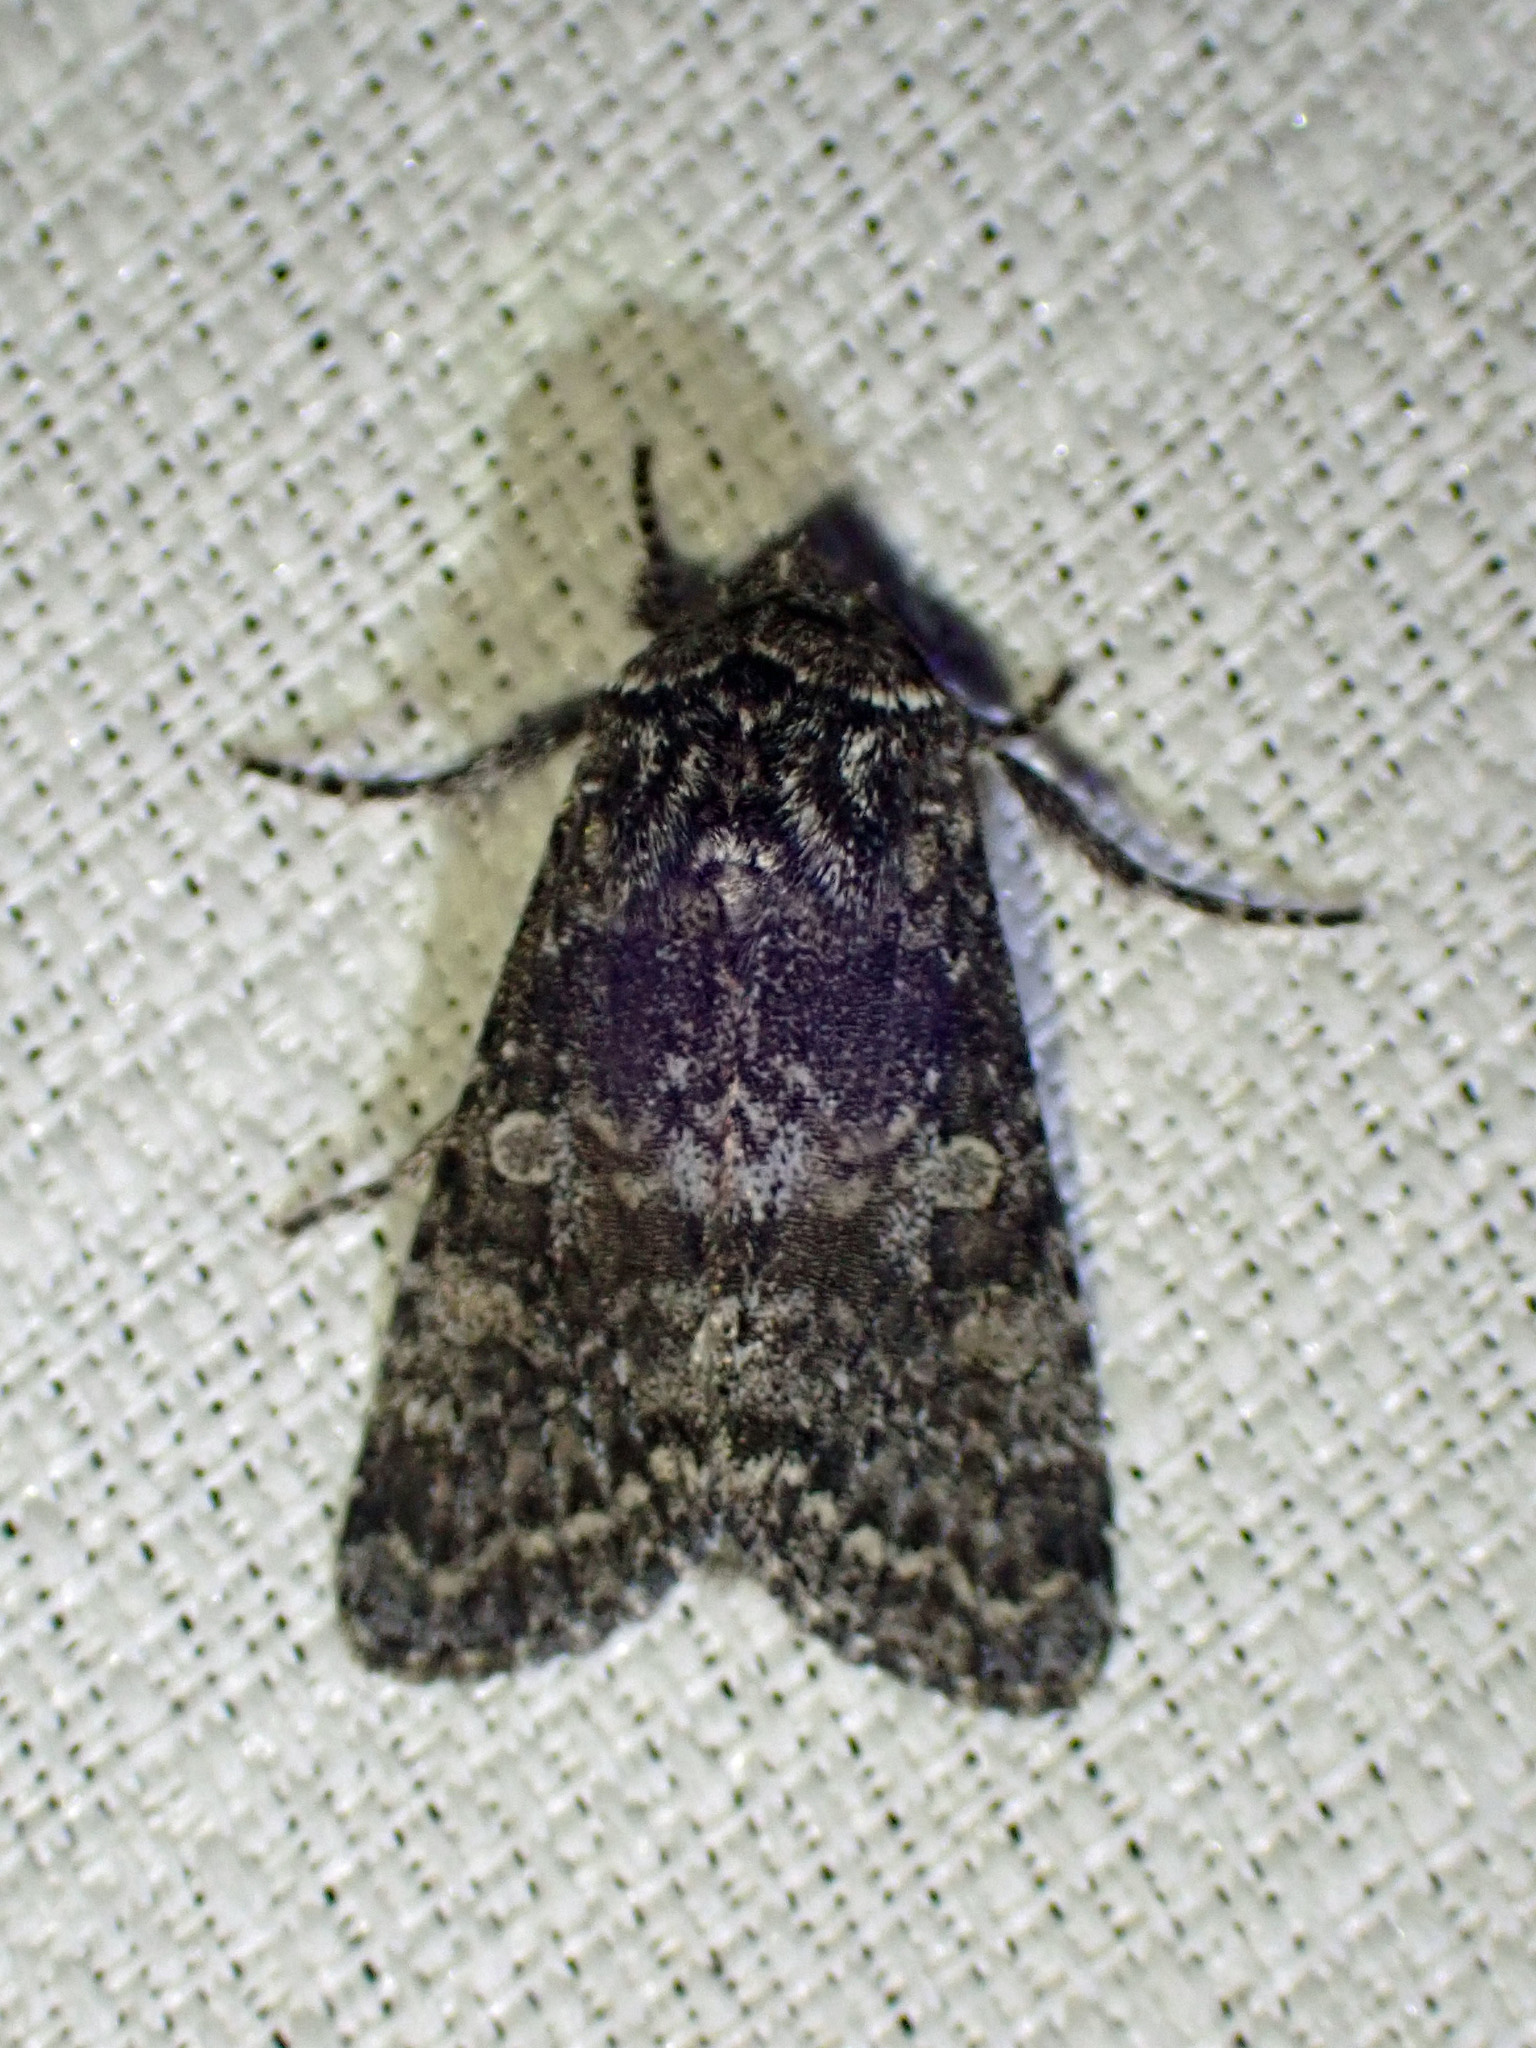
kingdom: Animalia
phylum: Arthropoda
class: Insecta
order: Lepidoptera
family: Noctuidae
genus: Egira
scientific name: Egira dolosa
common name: Lined black aspen cat.
